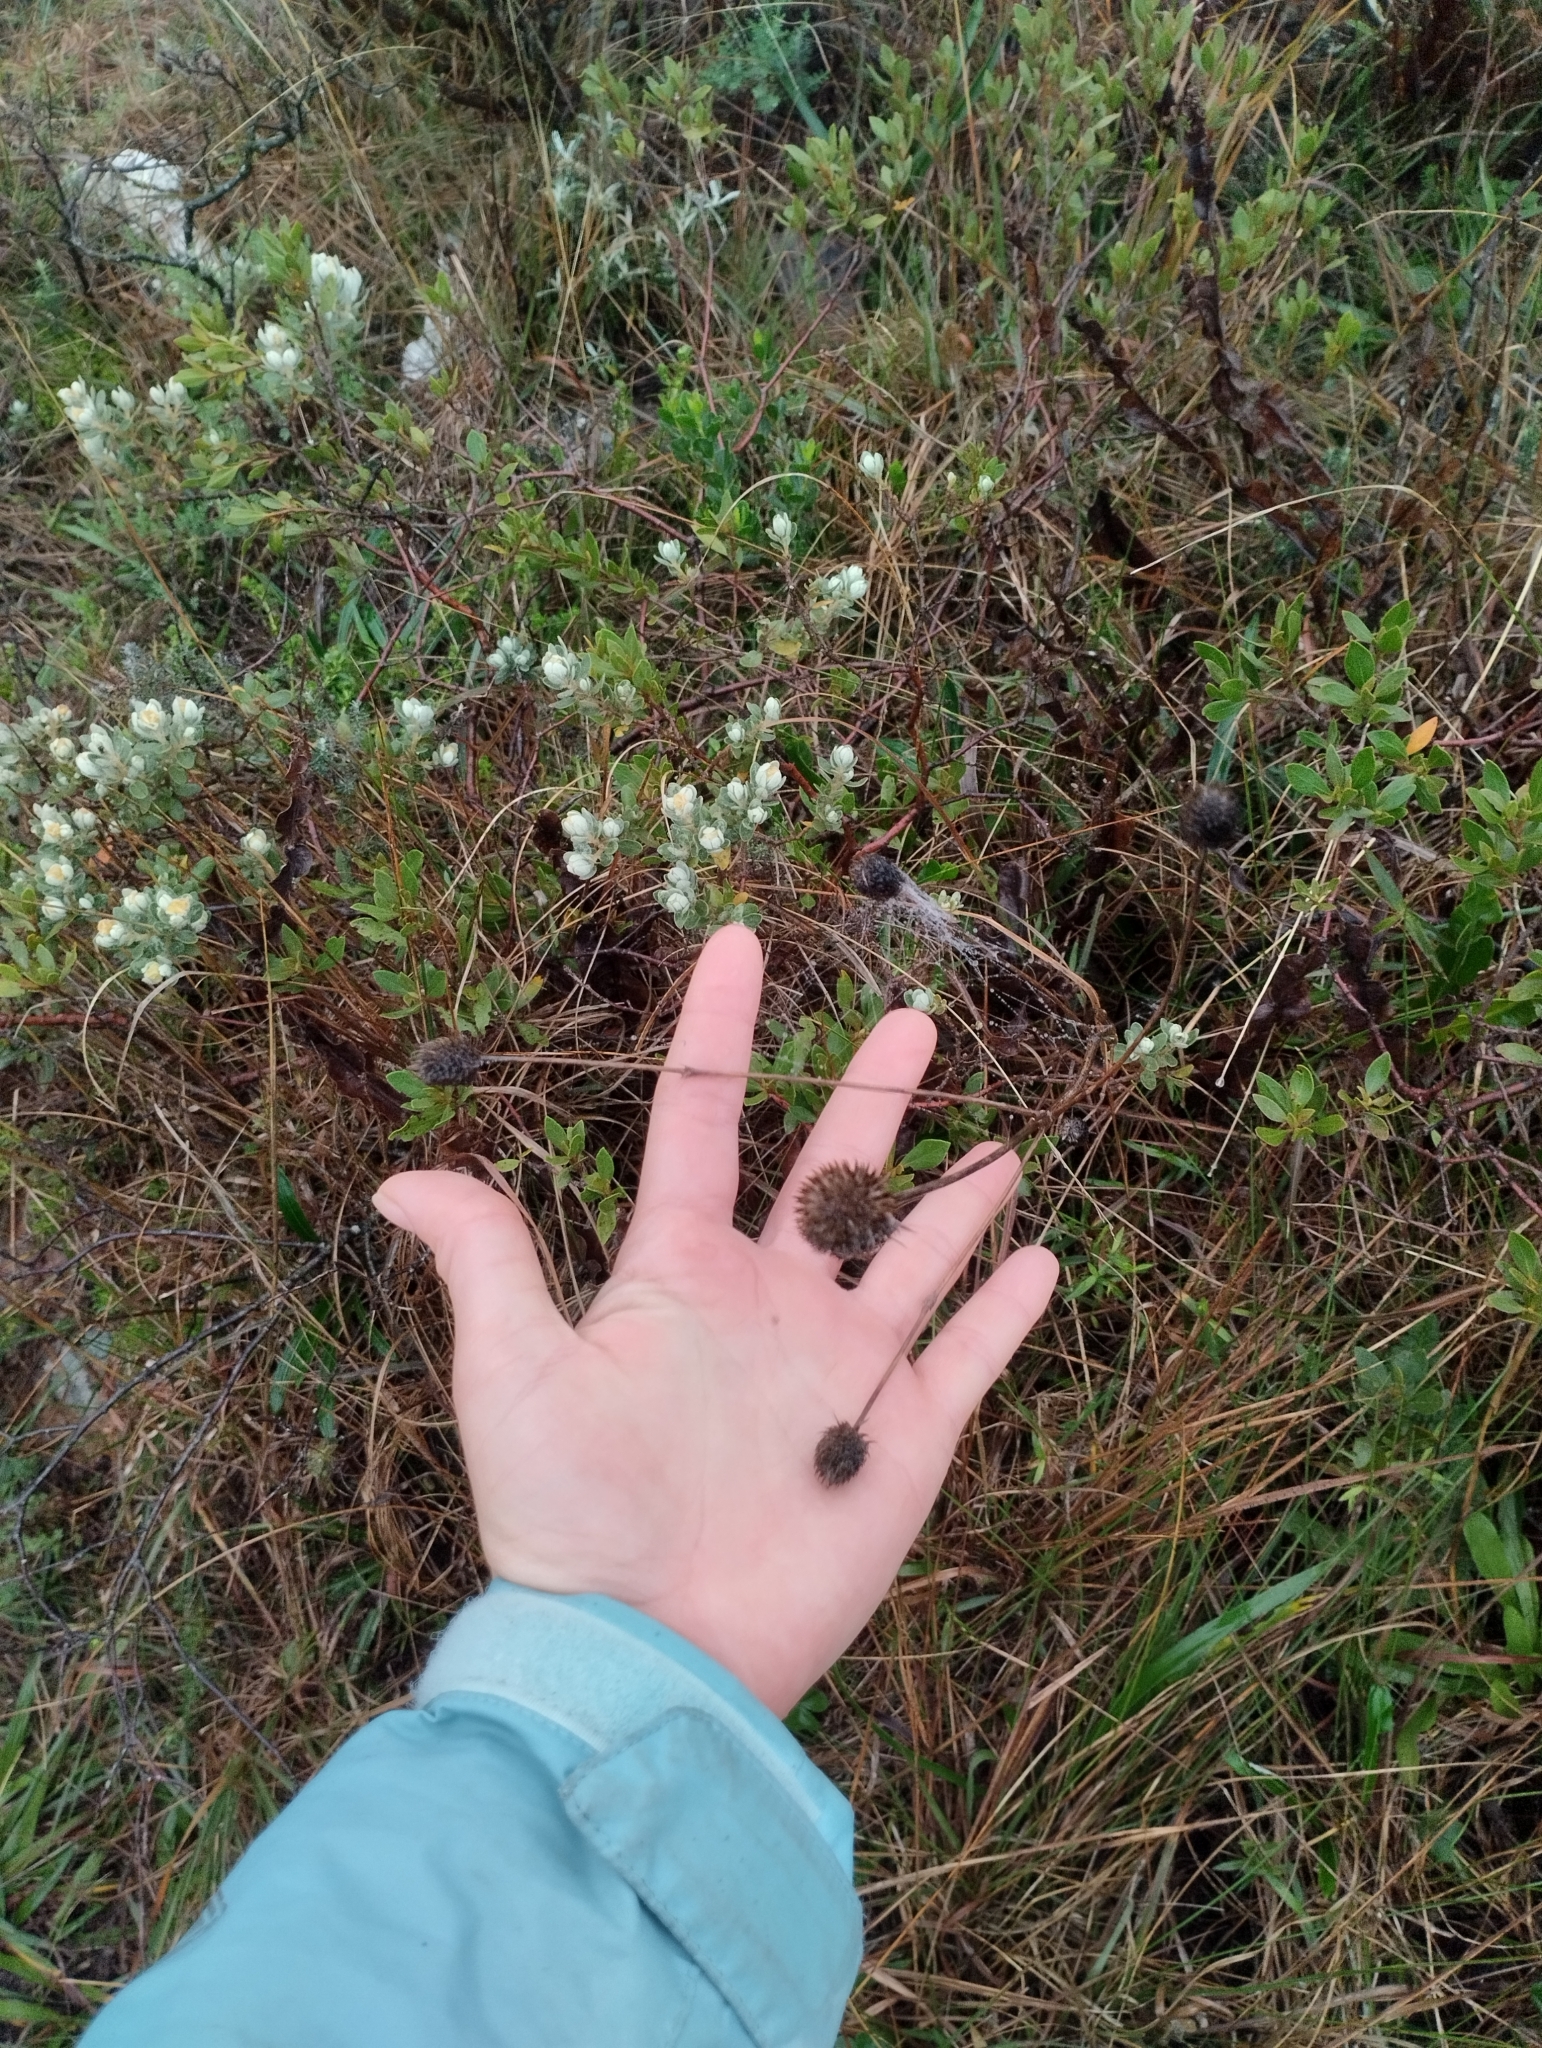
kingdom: Plantae
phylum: Tracheophyta
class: Magnoliopsida
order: Apiales
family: Apiaceae
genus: Eryngium
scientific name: Eryngium sanguisorba
